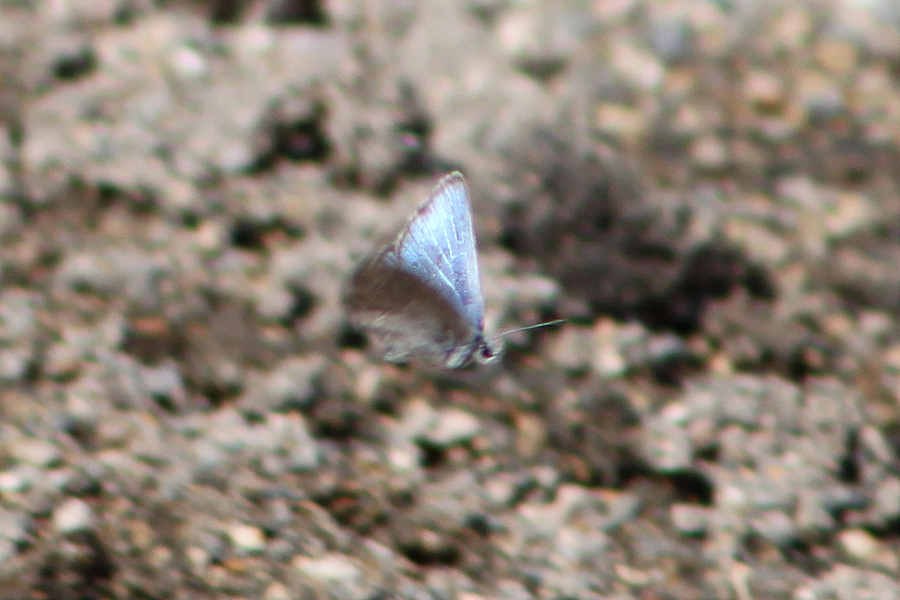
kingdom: Animalia
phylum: Arthropoda
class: Insecta
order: Lepidoptera
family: Lycaenidae
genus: Glaucopsyche
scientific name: Glaucopsyche lygdamus
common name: Silvery blue
